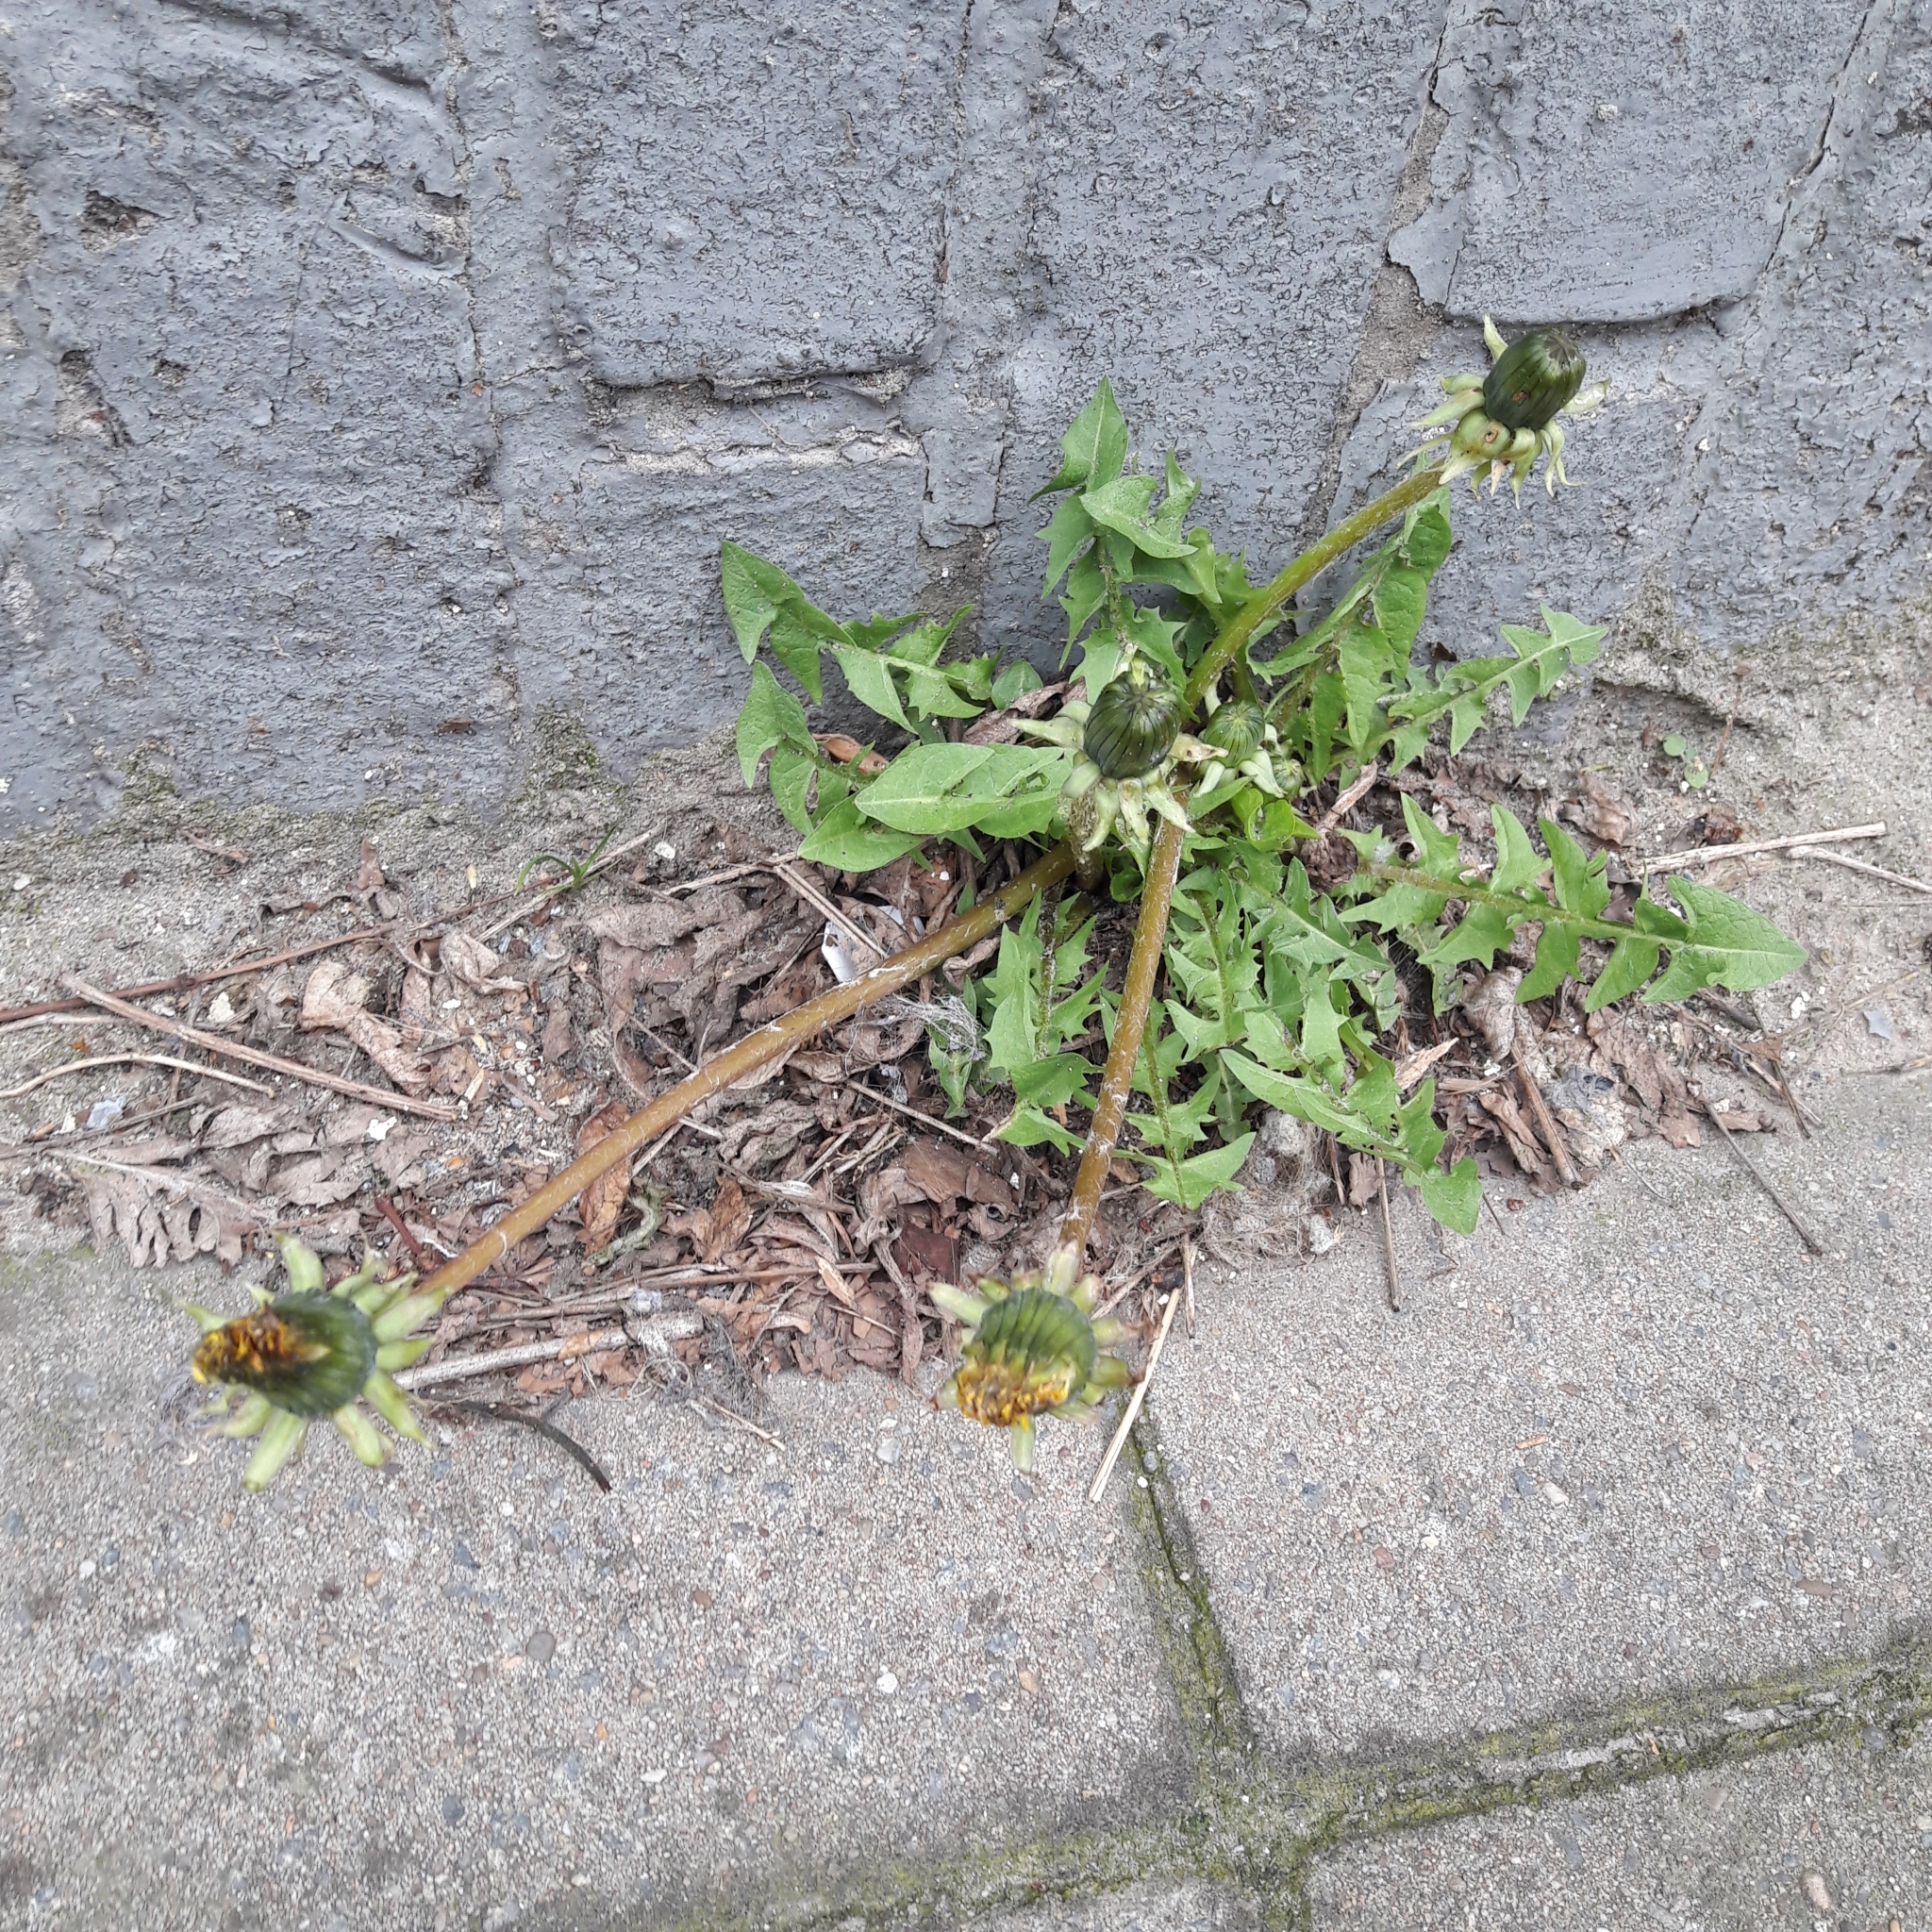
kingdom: Plantae
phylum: Tracheophyta
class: Magnoliopsida
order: Asterales
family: Asteraceae
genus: Taraxacum
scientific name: Taraxacum officinale
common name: Common dandelion
